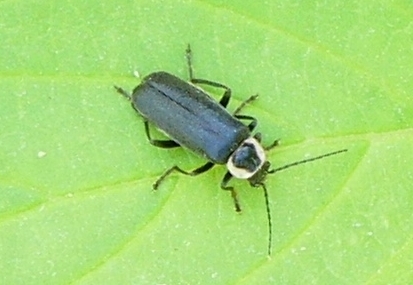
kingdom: Animalia
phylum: Arthropoda
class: Insecta
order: Coleoptera
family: Cantharidae
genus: Atalantycha
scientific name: Atalantycha neglecta
